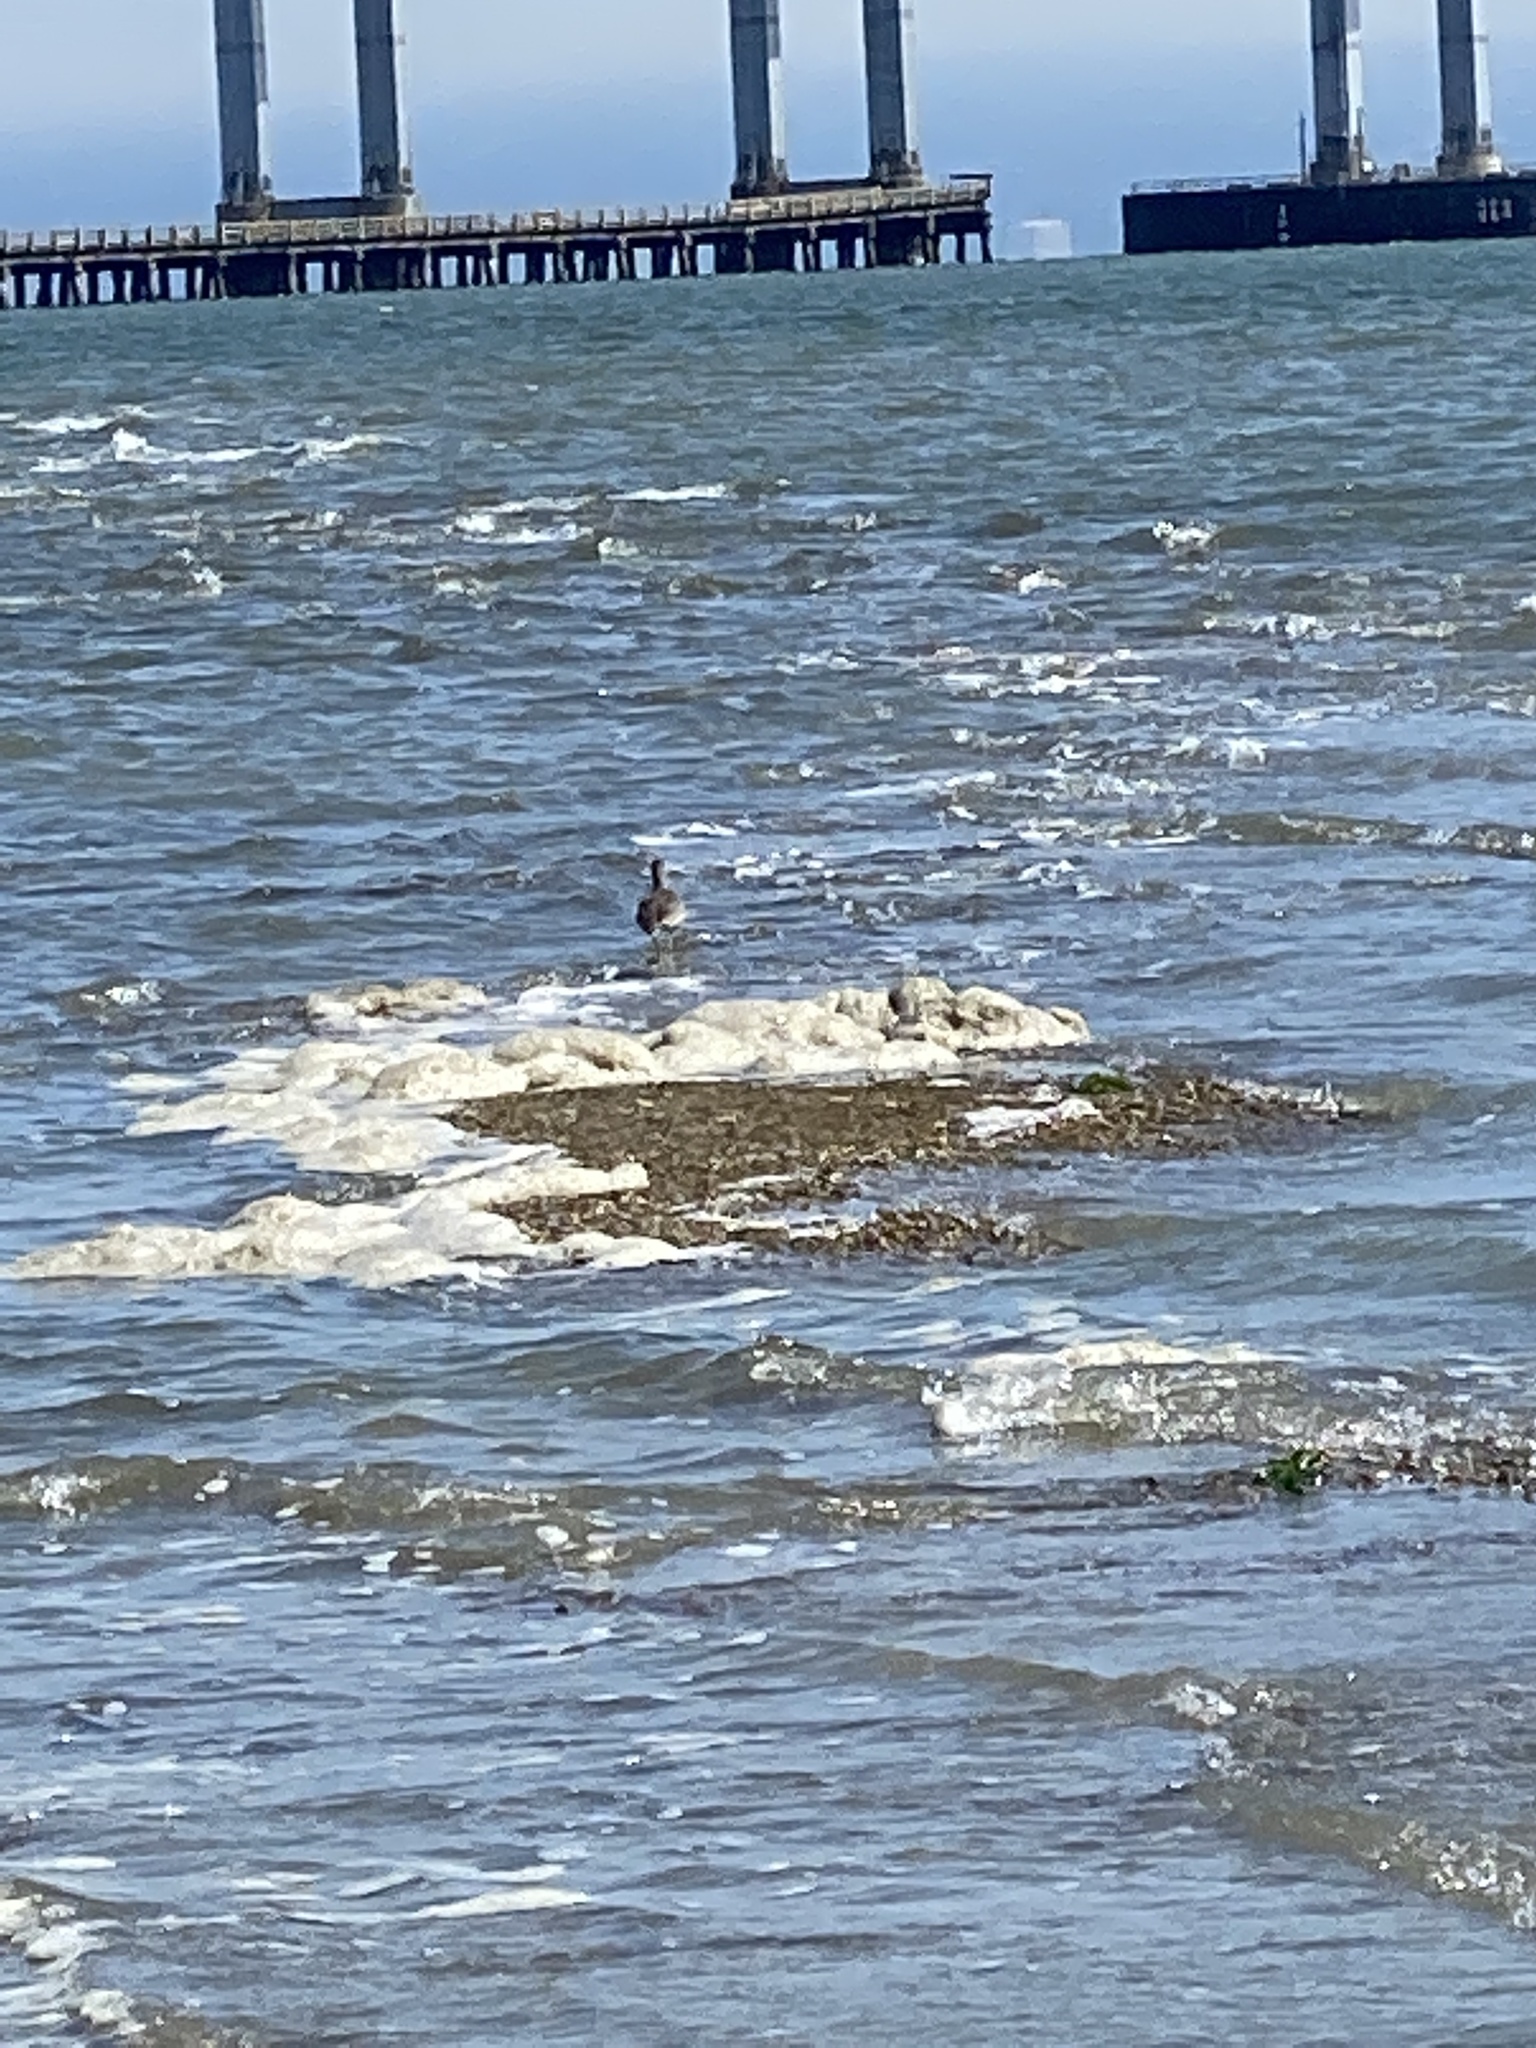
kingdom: Animalia
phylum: Chordata
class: Aves
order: Charadriiformes
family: Scolopacidae
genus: Tringa
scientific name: Tringa semipalmata
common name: Willet
